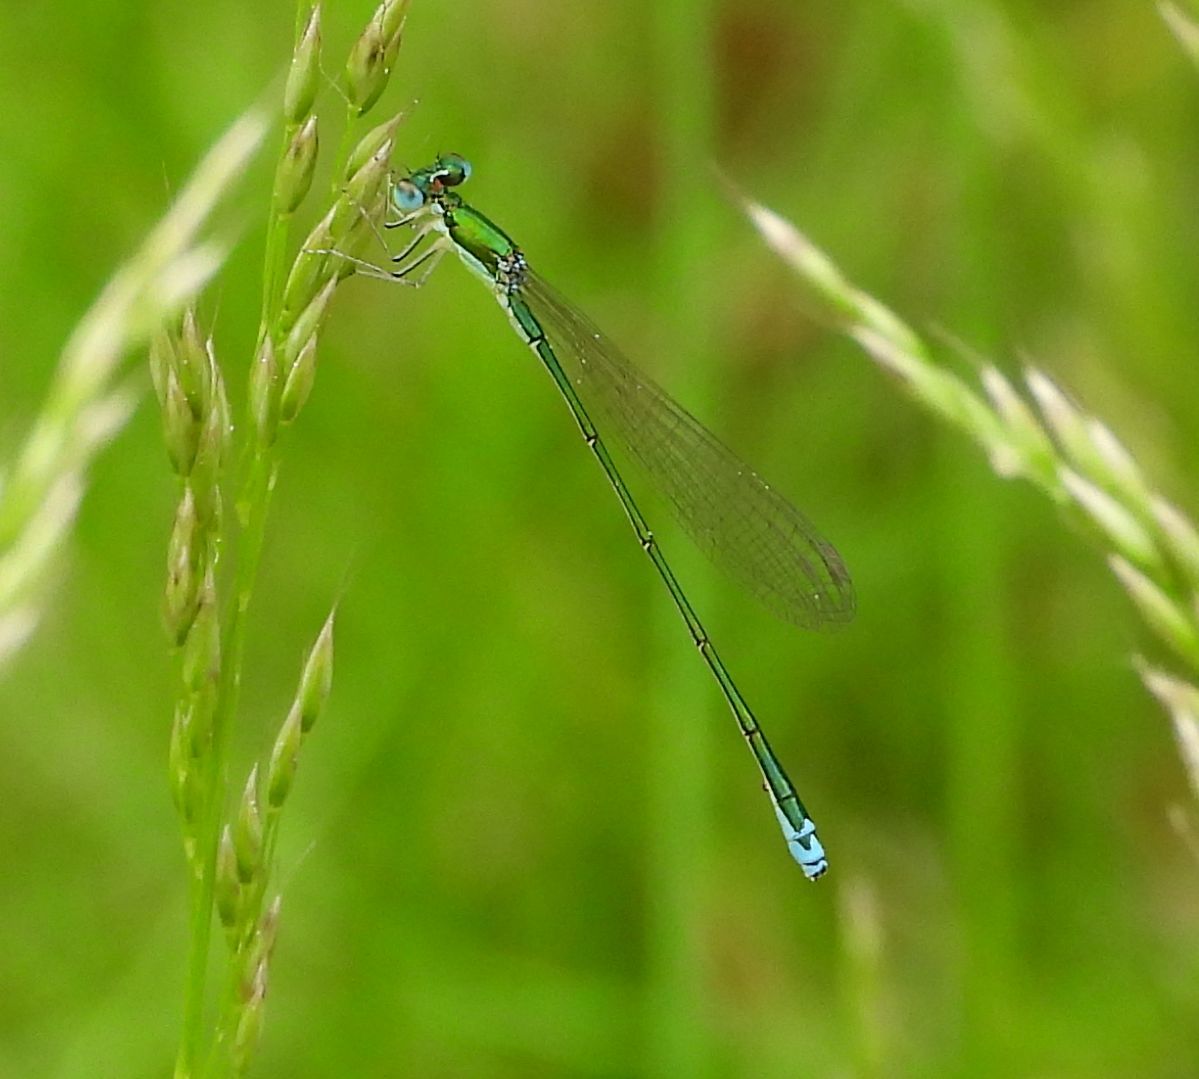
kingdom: Animalia
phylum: Arthropoda
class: Insecta
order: Odonata
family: Coenagrionidae
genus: Nehalennia
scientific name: Nehalennia irene
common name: Sedge sprite
